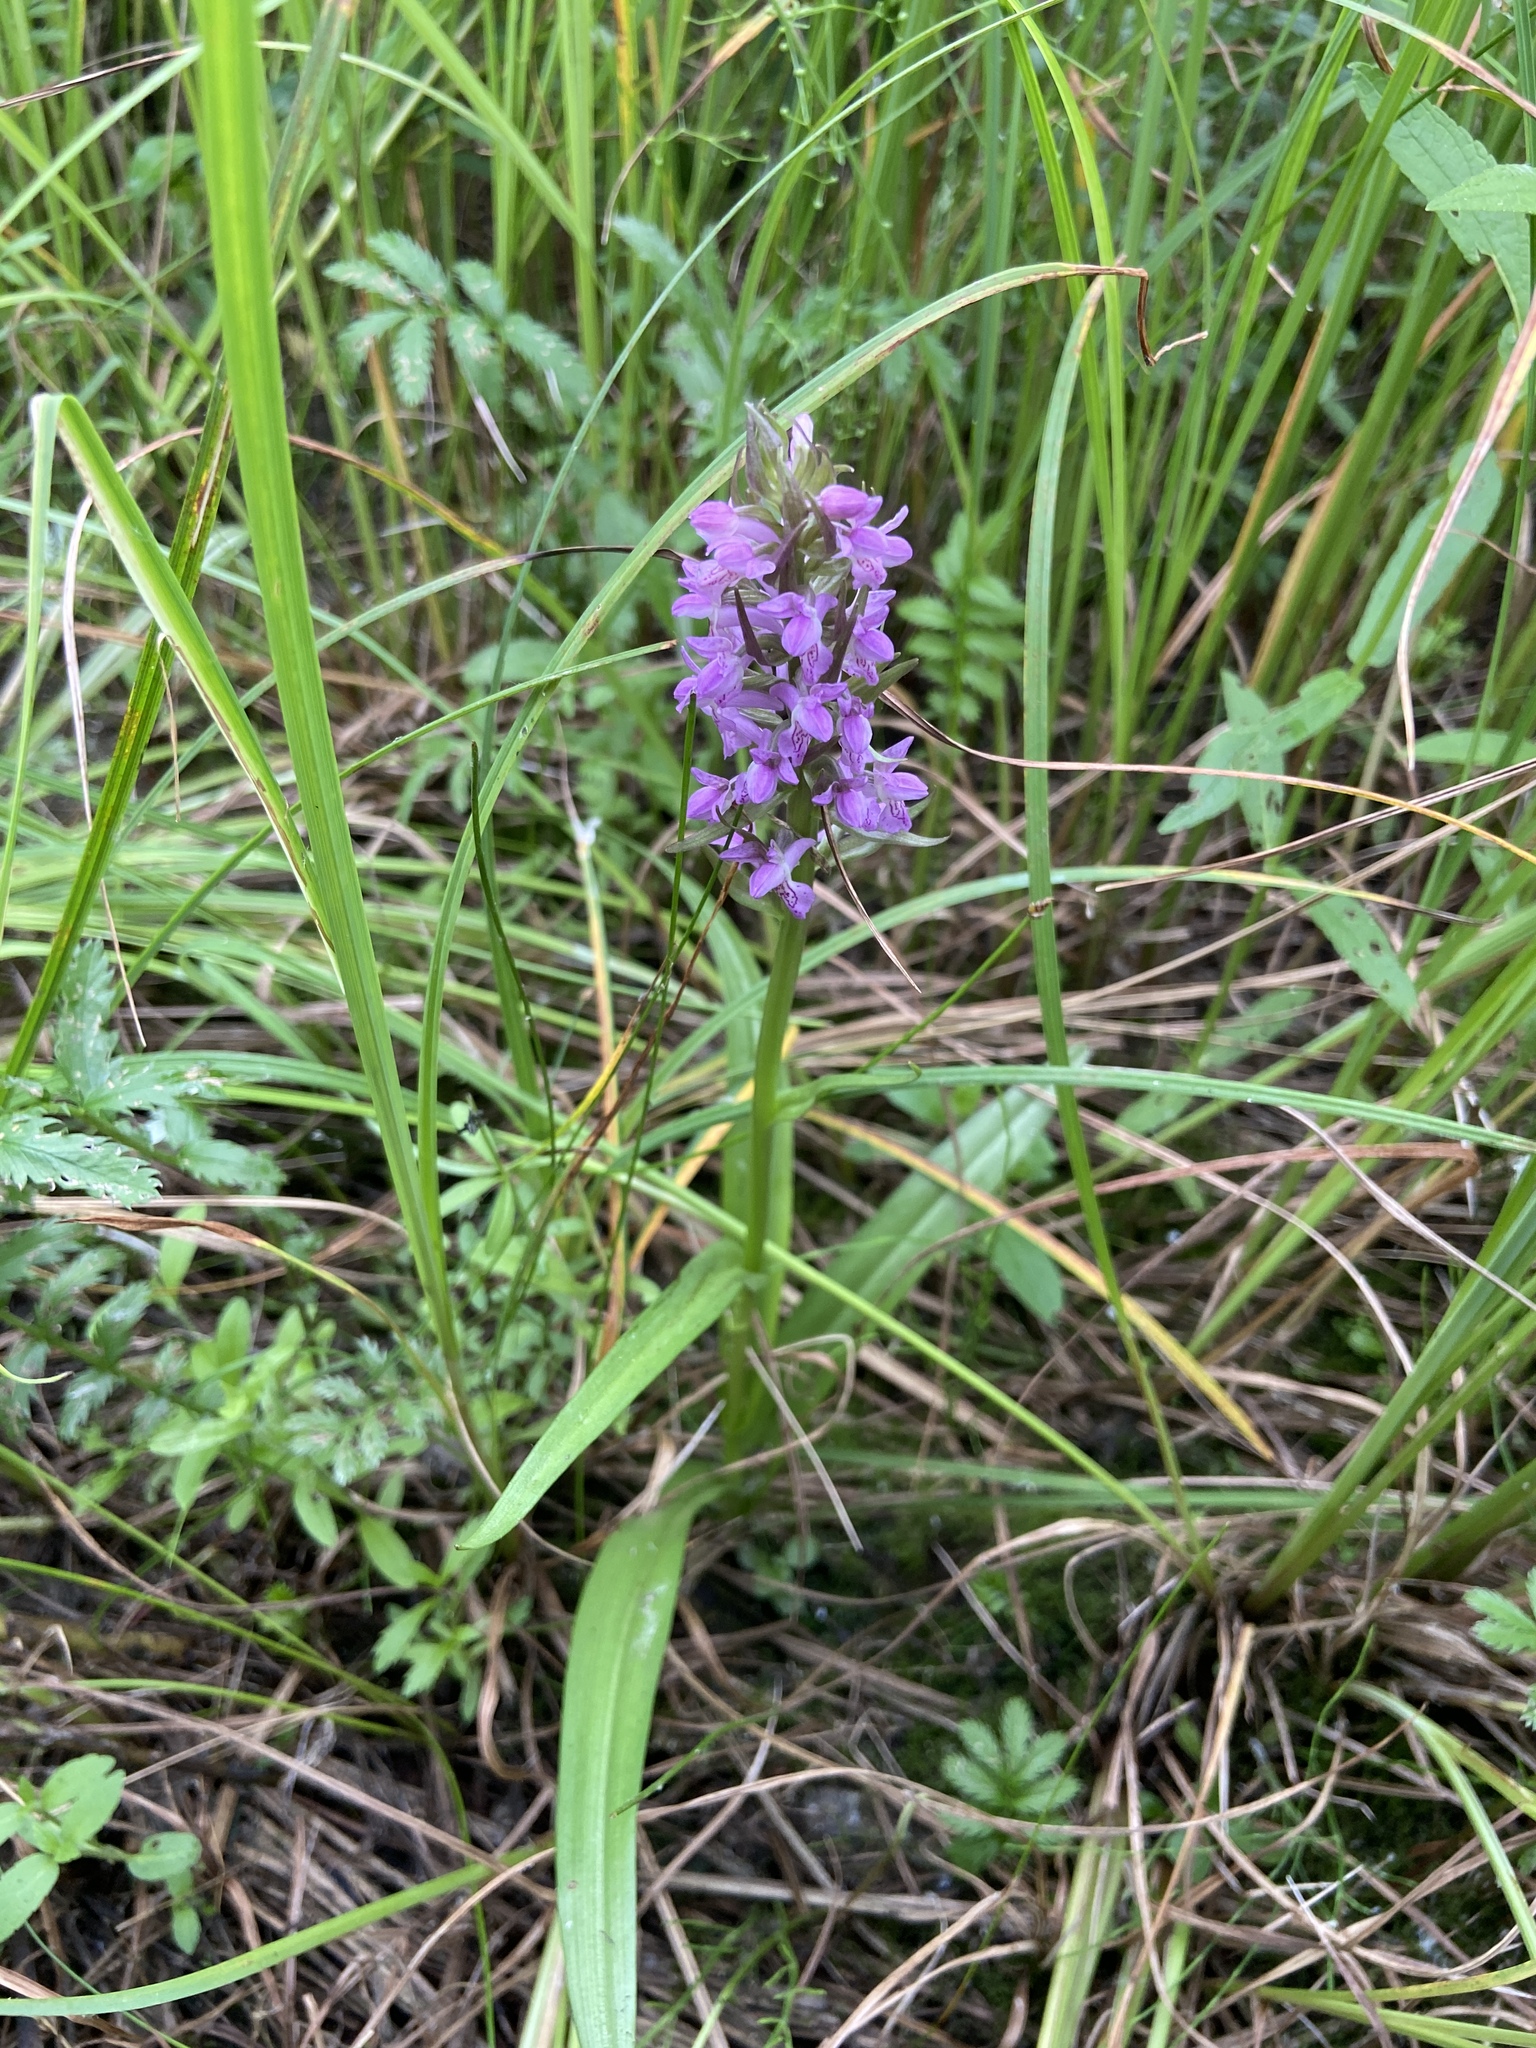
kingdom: Plantae
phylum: Tracheophyta
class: Liliopsida
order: Asparagales
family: Orchidaceae
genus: Dactylorhiza
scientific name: Dactylorhiza incarnata
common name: Early marsh-orchid
